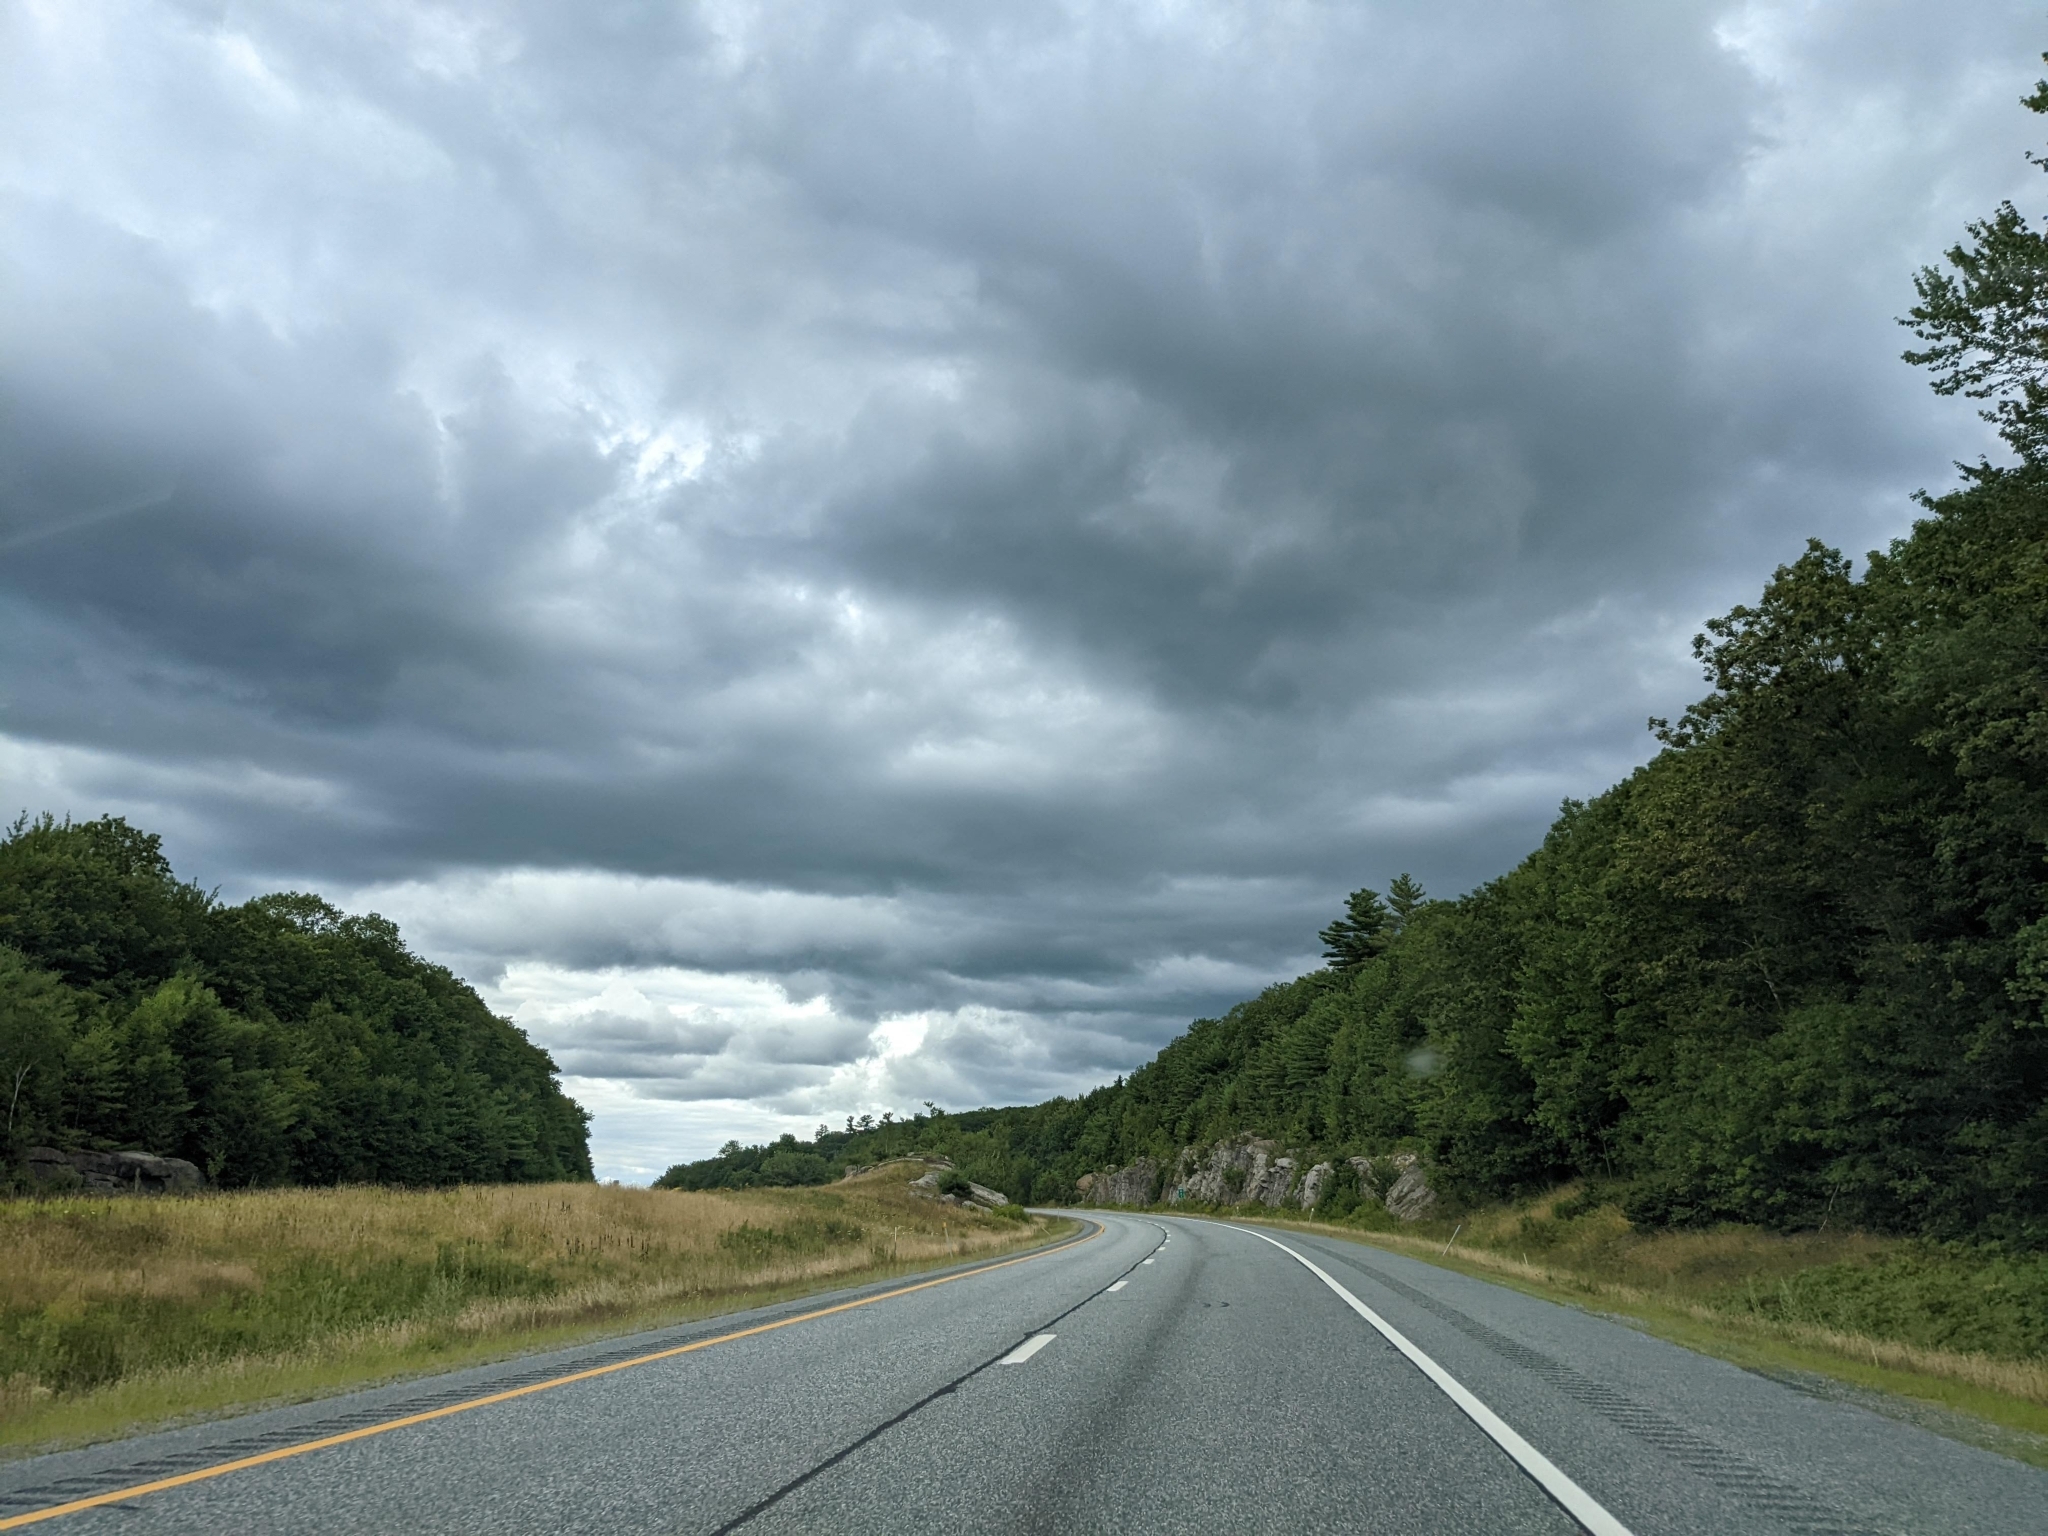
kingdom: Plantae
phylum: Tracheophyta
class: Pinopsida
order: Pinales
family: Pinaceae
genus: Pinus
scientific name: Pinus strobus
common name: Weymouth pine
